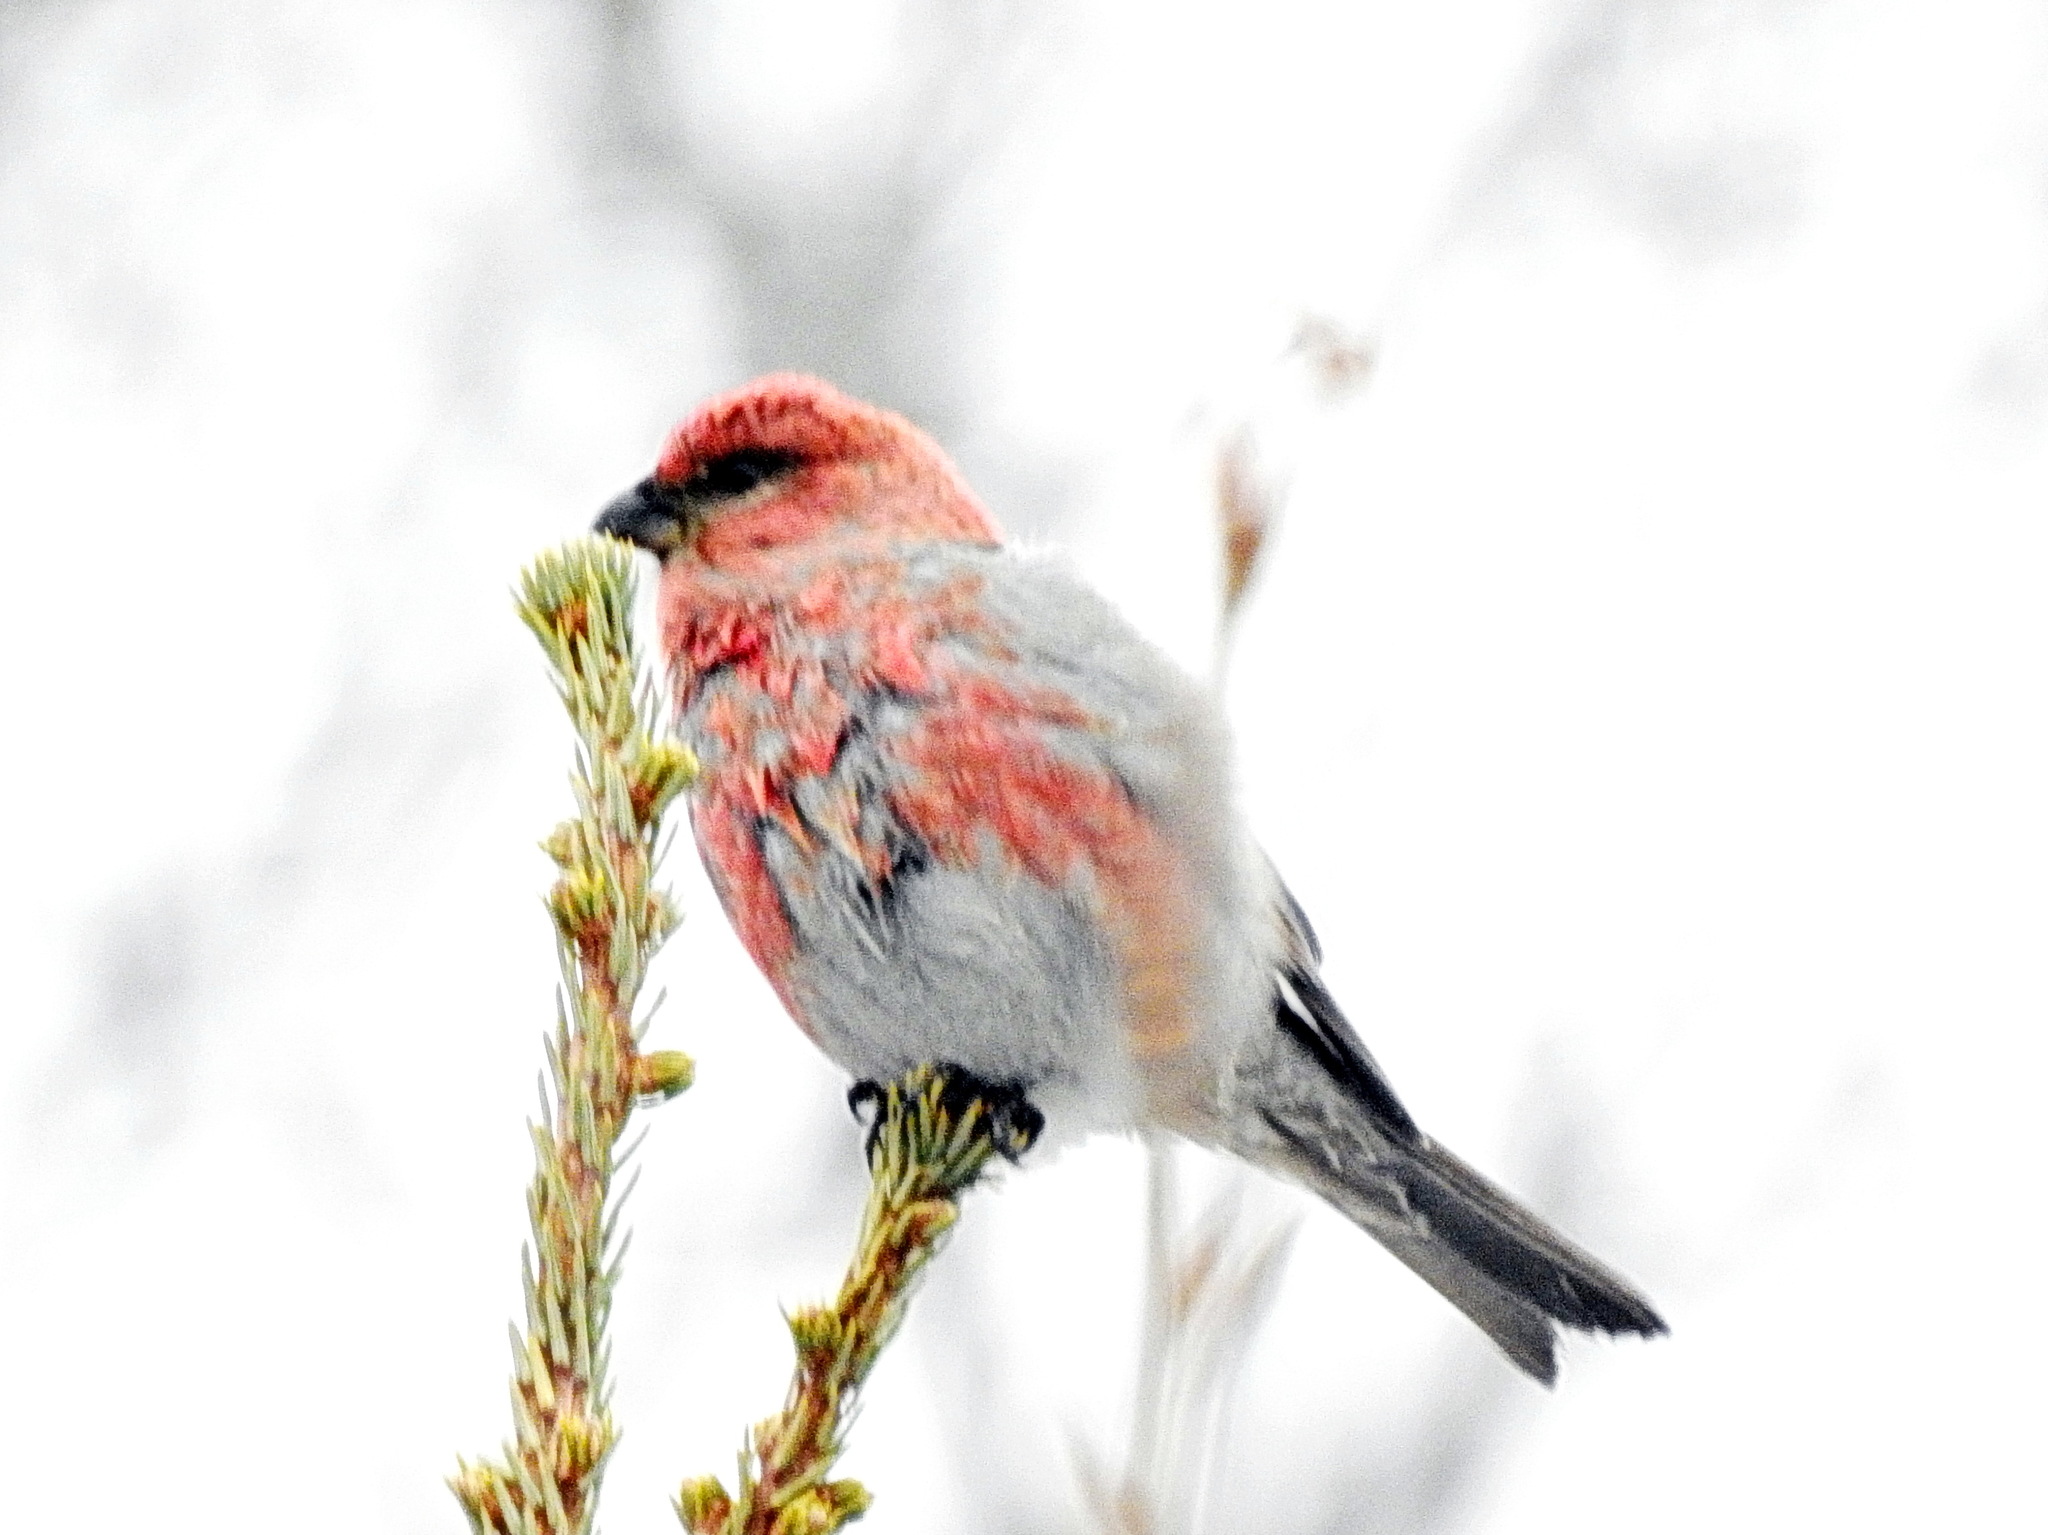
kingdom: Animalia
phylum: Chordata
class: Aves
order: Passeriformes
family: Fringillidae
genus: Pinicola
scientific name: Pinicola enucleator
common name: Pine grosbeak
